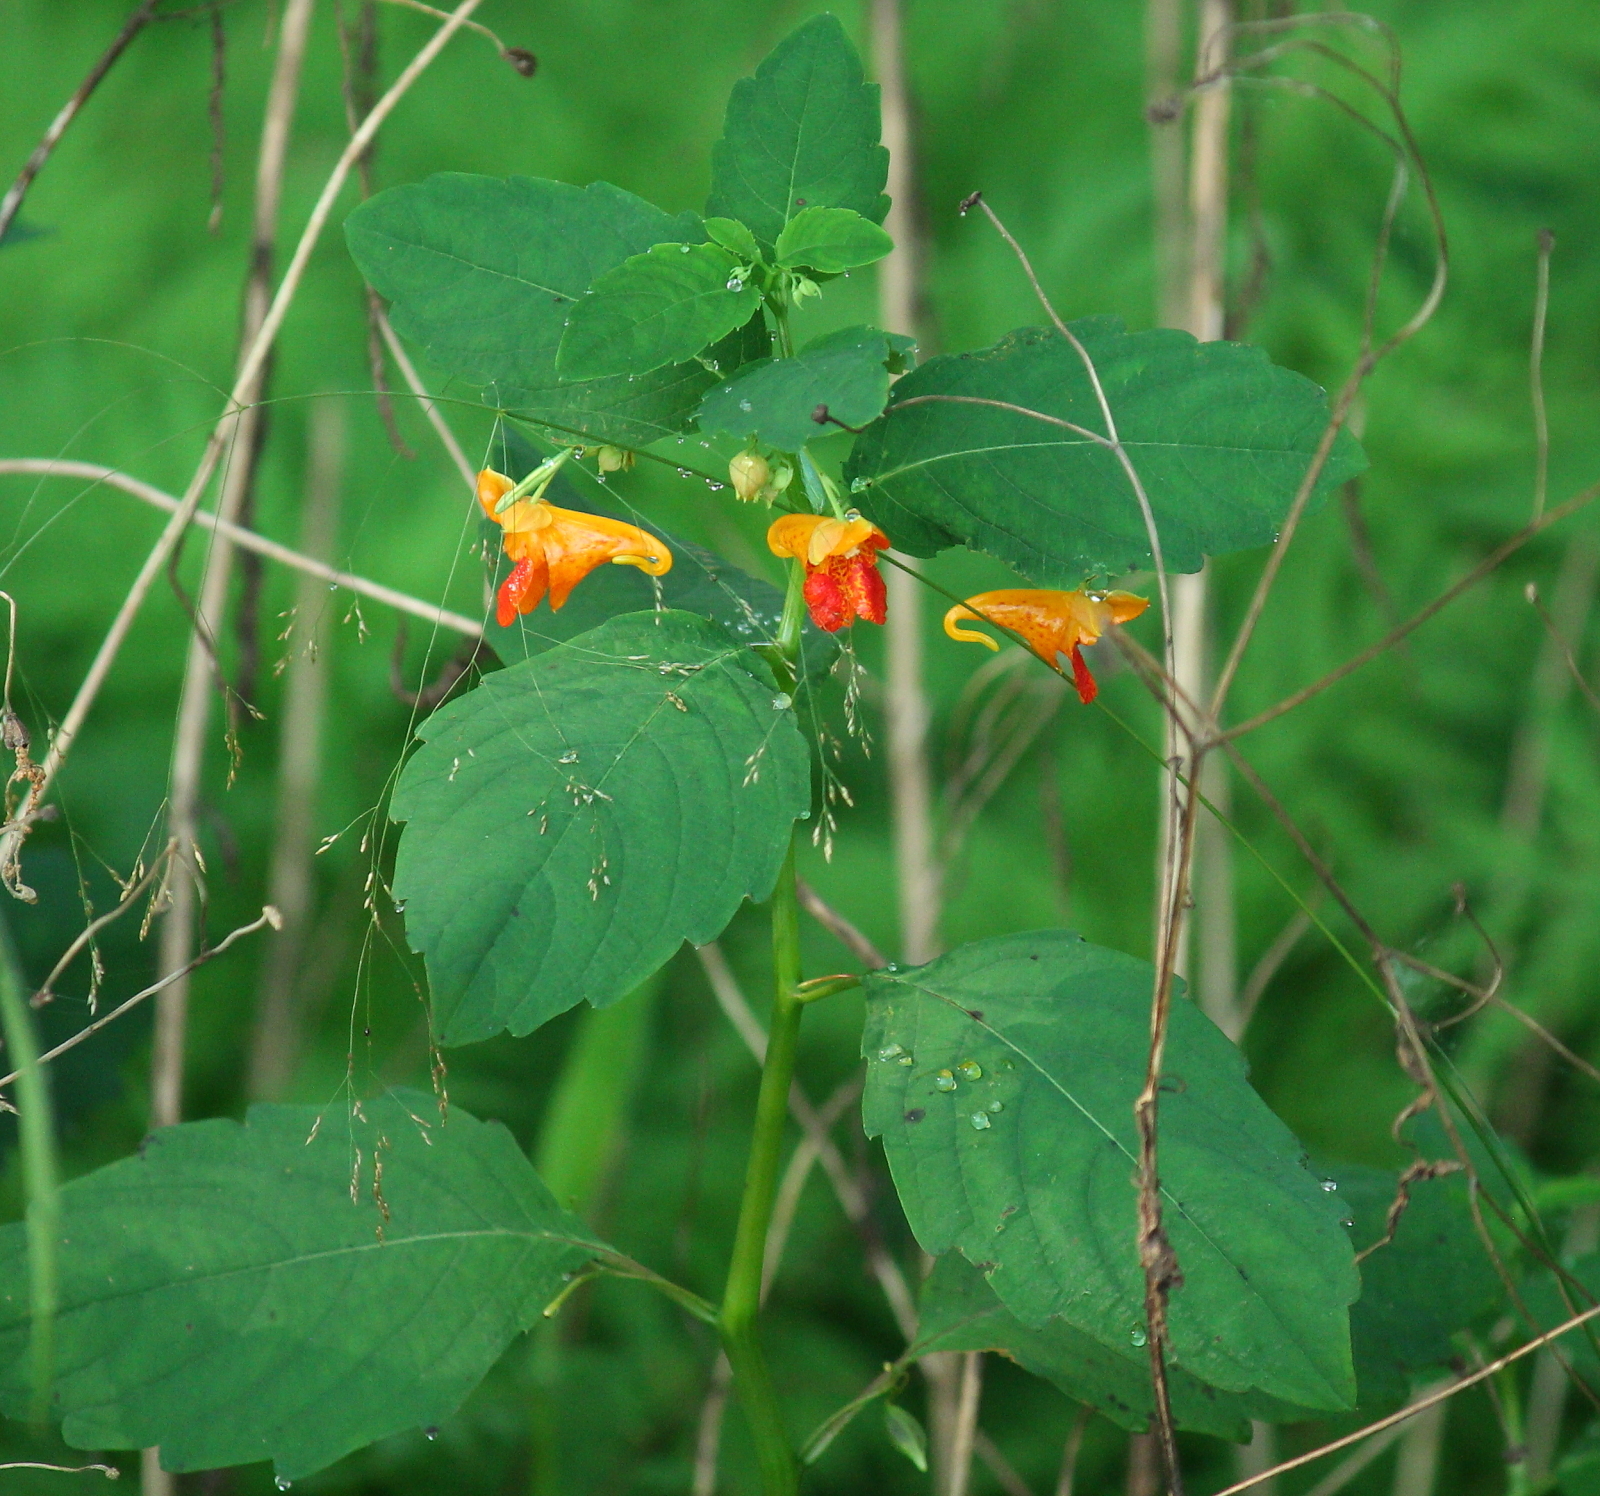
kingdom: Plantae
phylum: Tracheophyta
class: Magnoliopsida
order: Ericales
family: Balsaminaceae
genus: Impatiens
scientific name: Impatiens capensis
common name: Orange balsam
